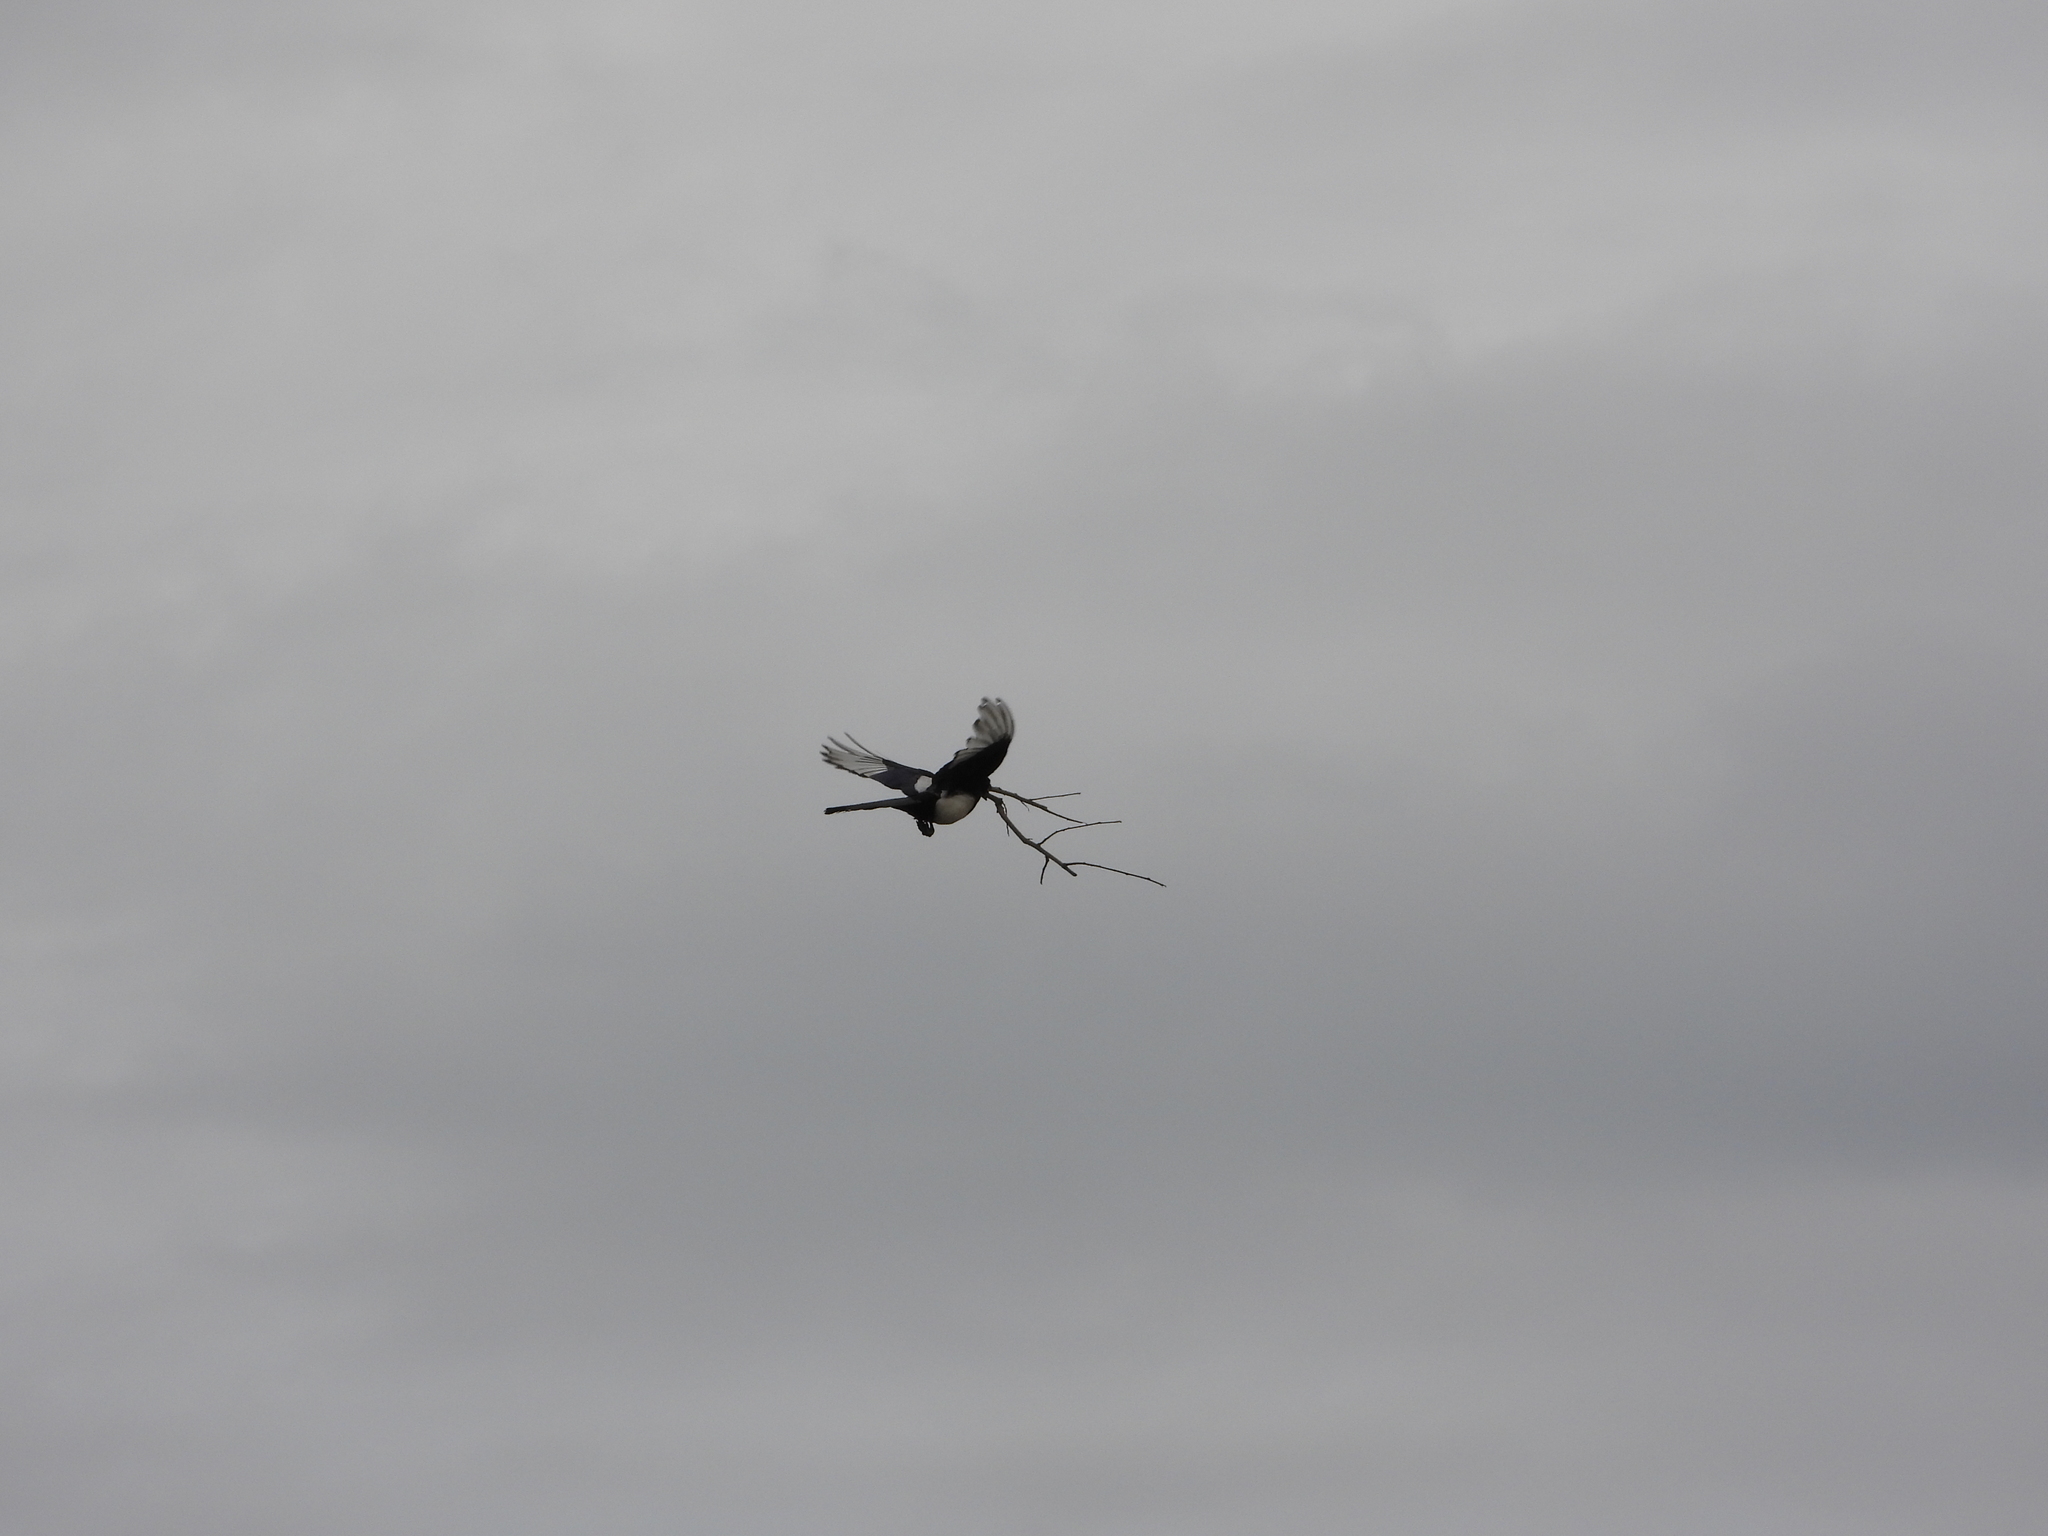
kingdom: Animalia
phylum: Chordata
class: Aves
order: Passeriformes
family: Corvidae
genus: Pica
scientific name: Pica serica
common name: Oriental magpie
